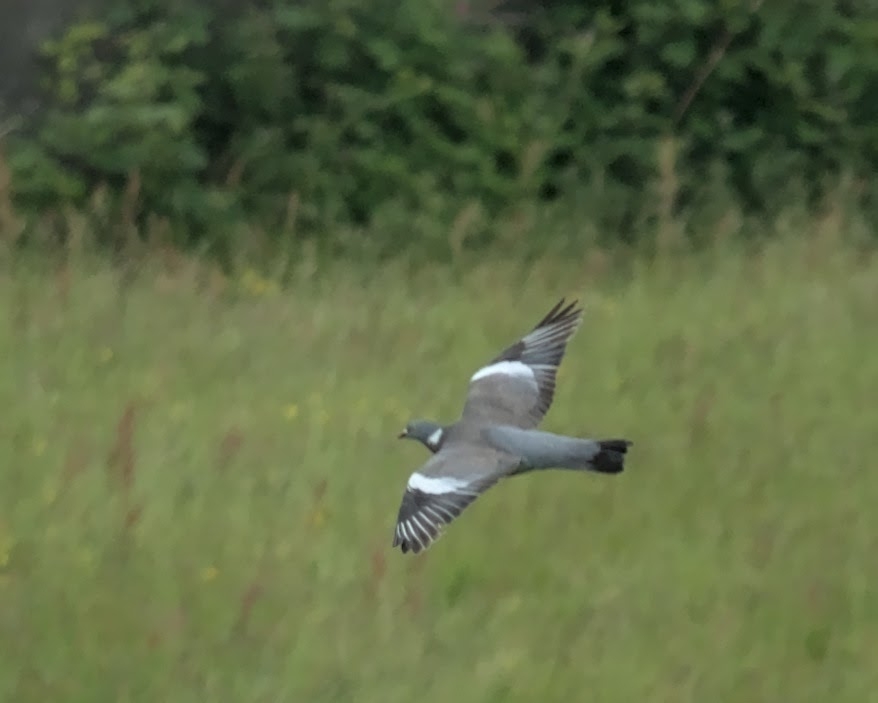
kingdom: Animalia
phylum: Chordata
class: Aves
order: Columbiformes
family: Columbidae
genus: Columba
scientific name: Columba palumbus
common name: Common wood pigeon
